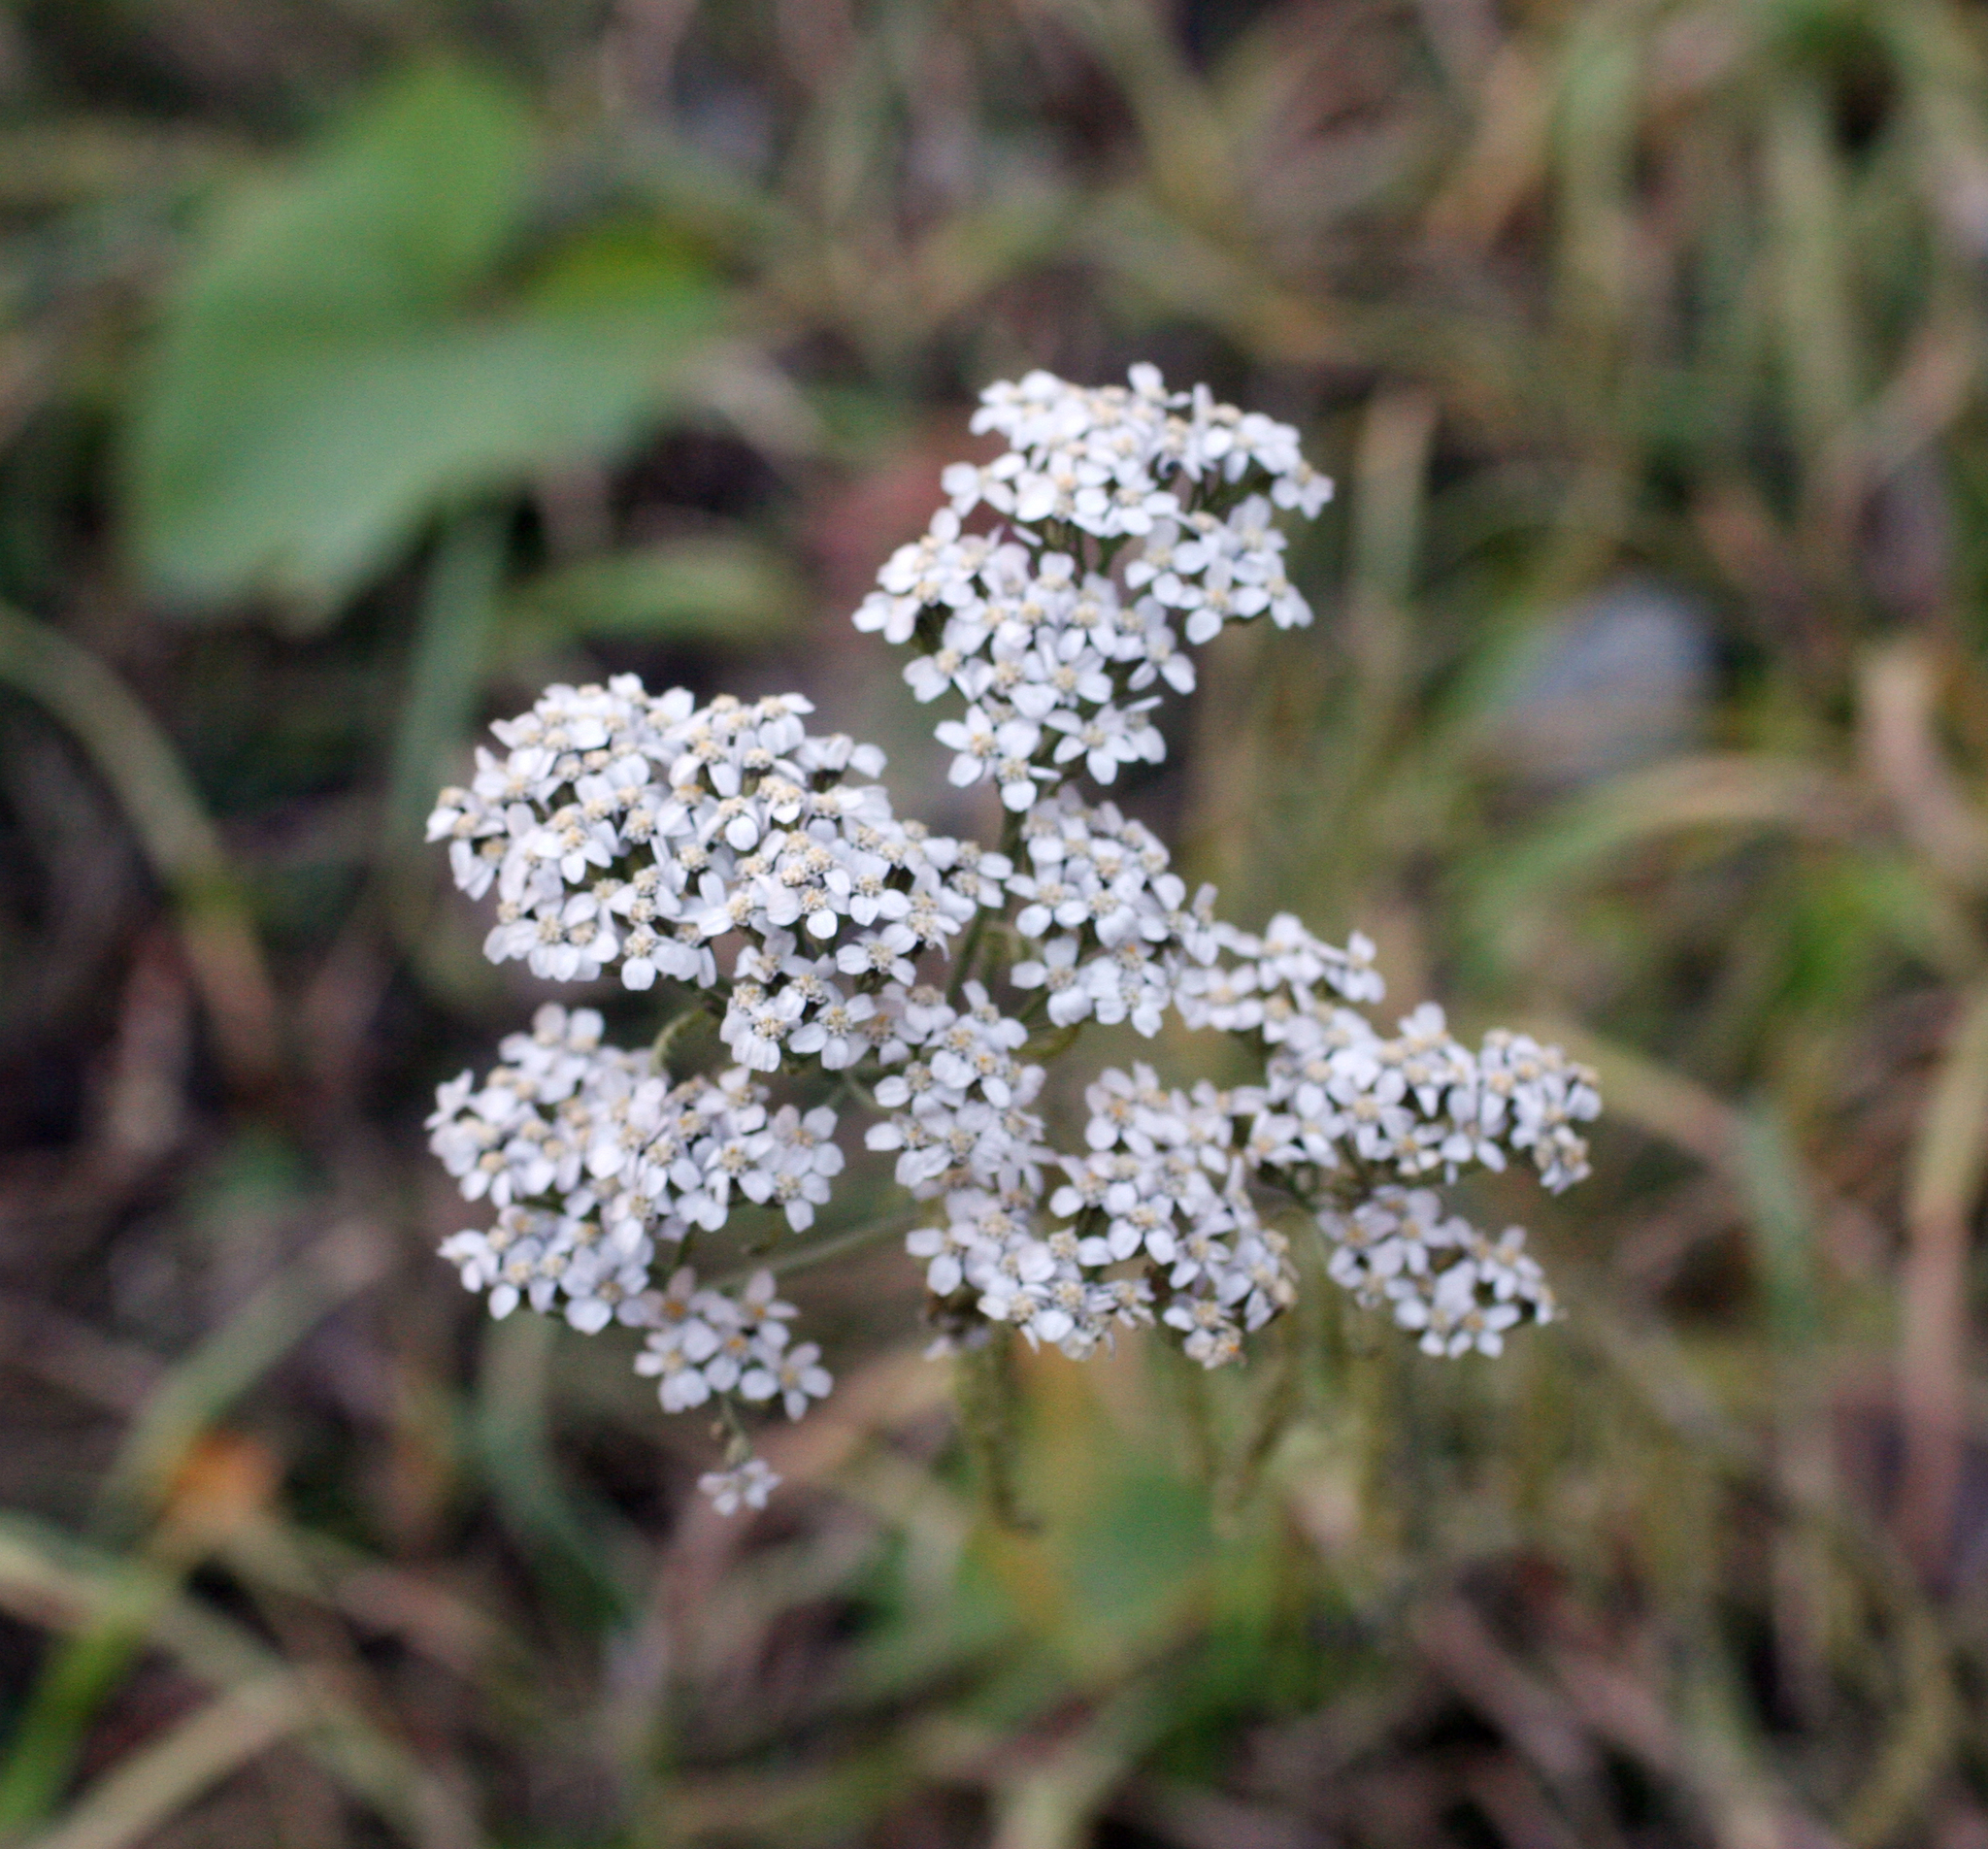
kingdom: Plantae
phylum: Tracheophyta
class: Magnoliopsida
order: Asterales
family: Asteraceae
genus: Achillea
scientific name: Achillea millefolium
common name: Yarrow
